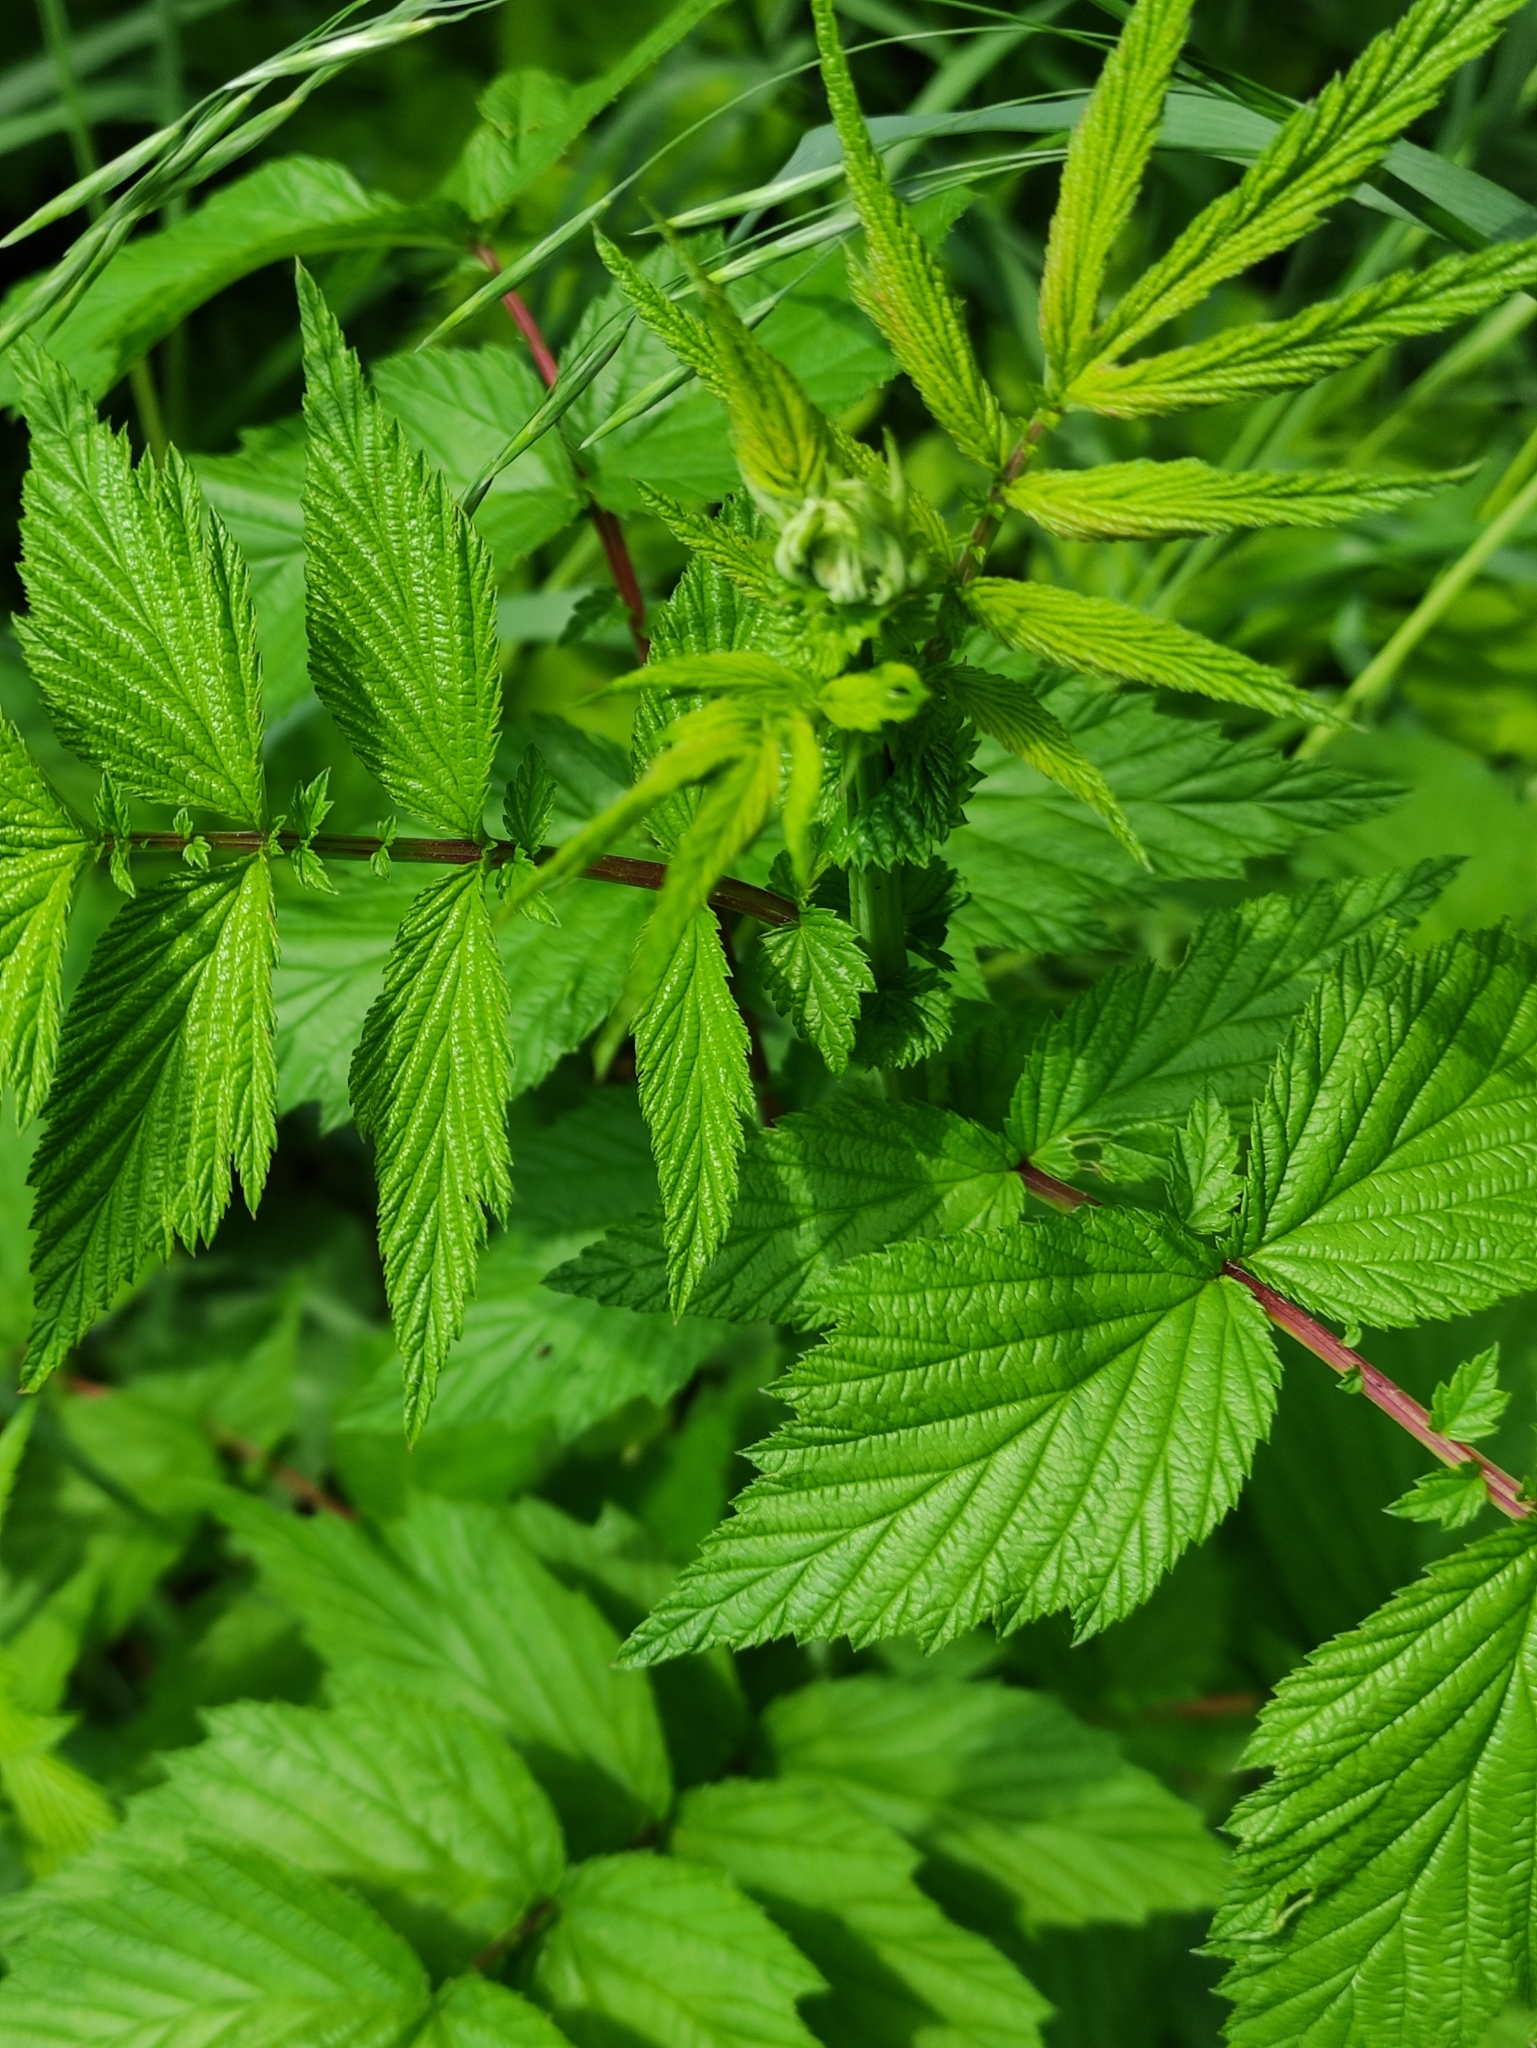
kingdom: Plantae
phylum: Tracheophyta
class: Magnoliopsida
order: Rosales
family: Rosaceae
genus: Filipendula
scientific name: Filipendula ulmaria
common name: Meadowsweet
